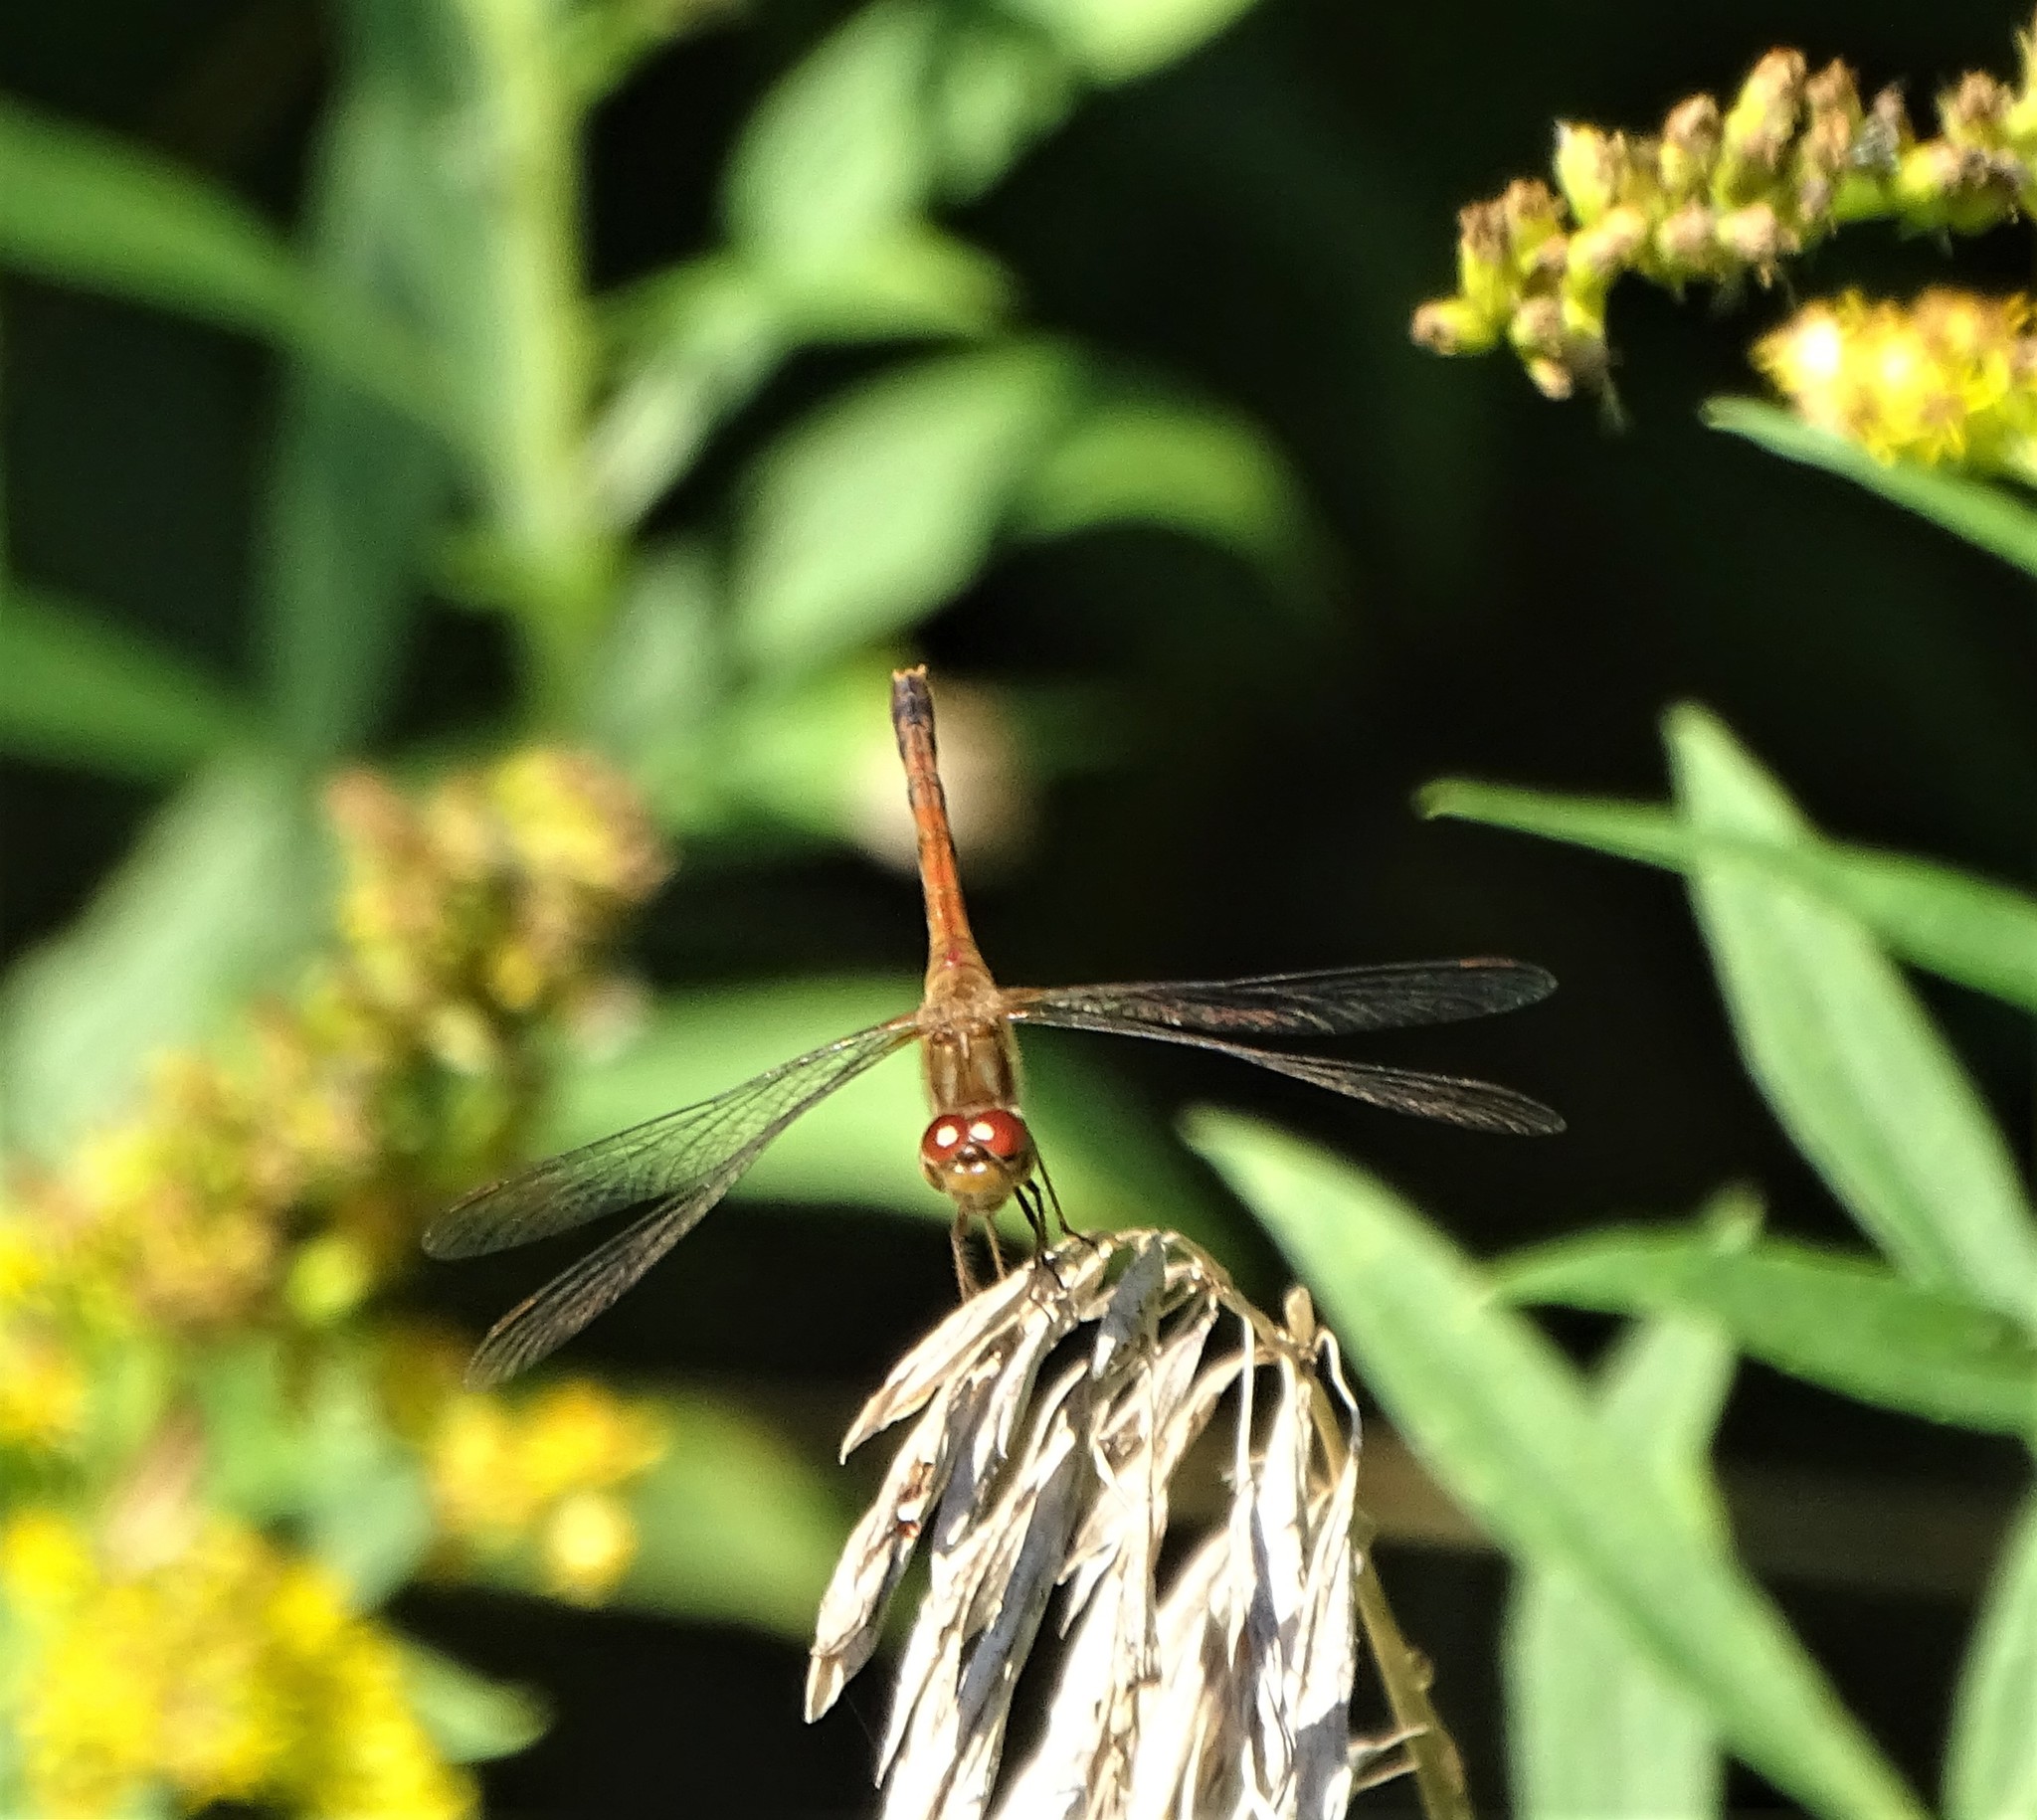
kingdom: Animalia
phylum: Arthropoda
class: Insecta
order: Odonata
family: Libellulidae
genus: Sympetrum
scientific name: Sympetrum vicinum
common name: Autumn meadowhawk
